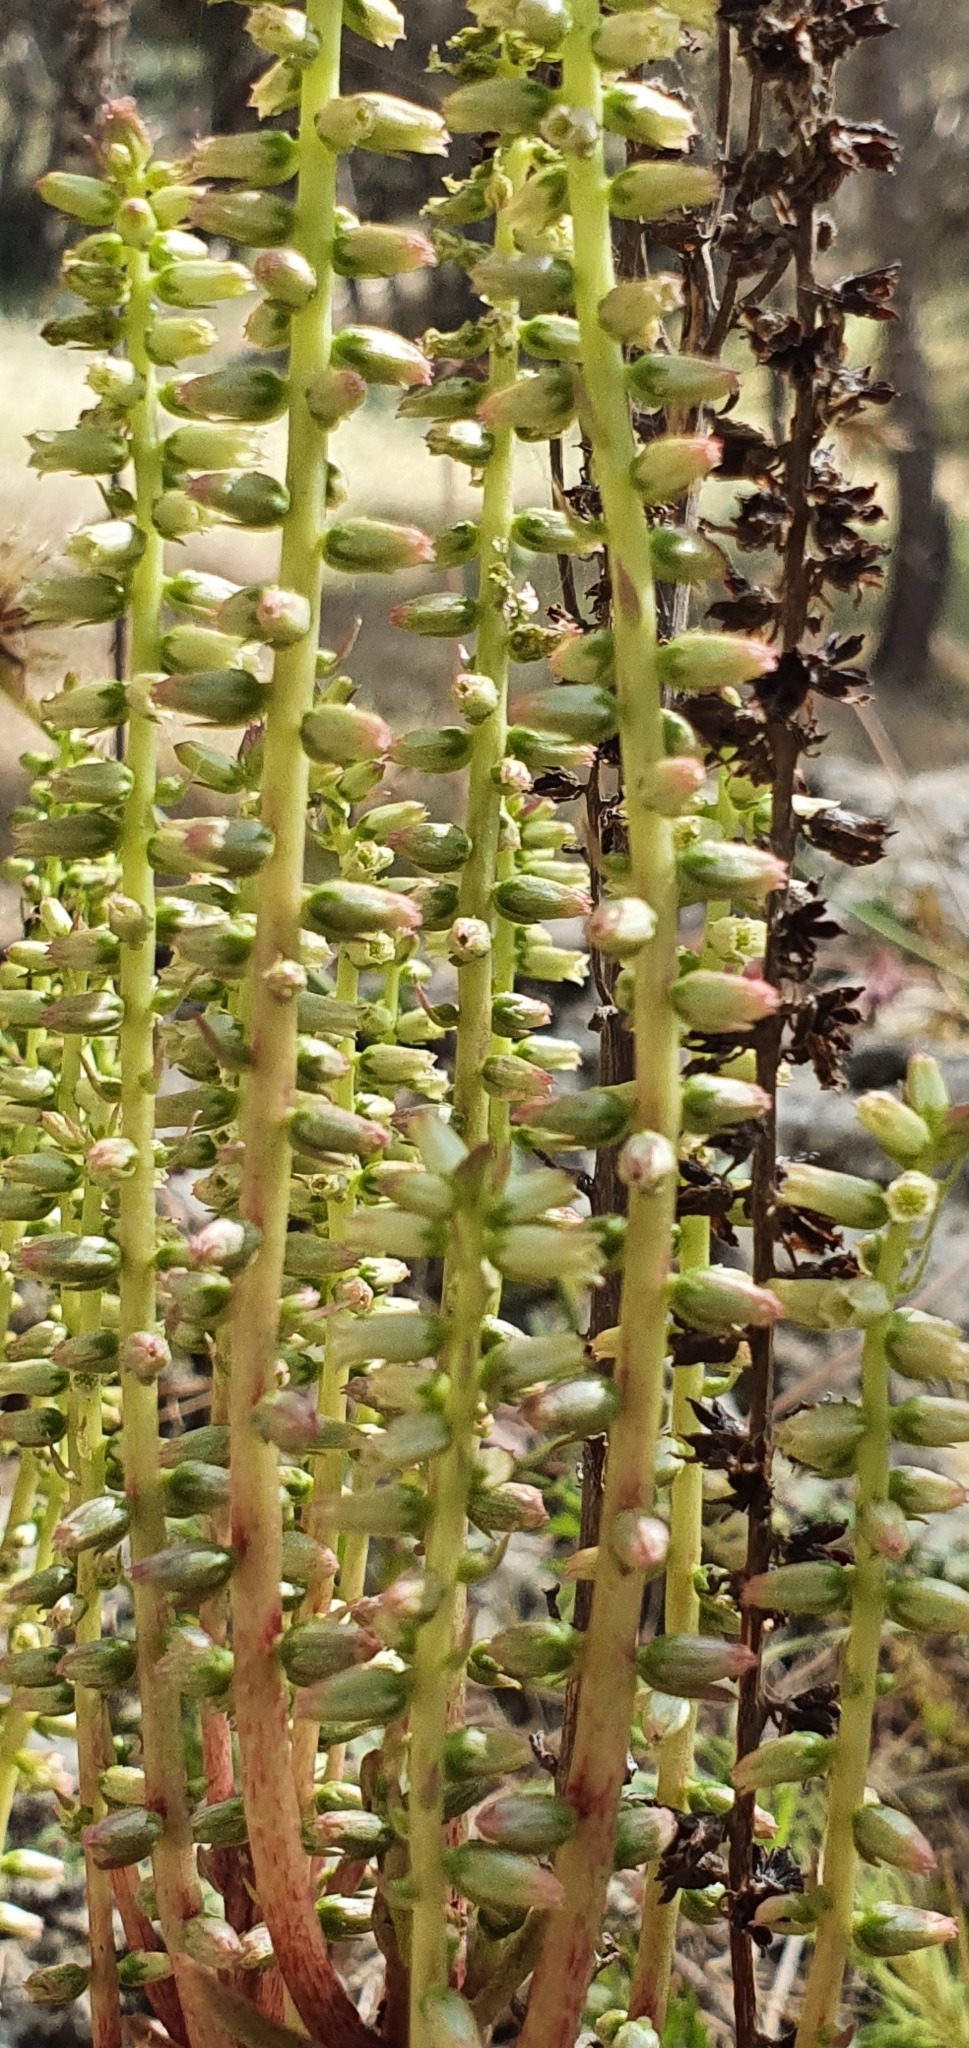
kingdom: Plantae
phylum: Tracheophyta
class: Magnoliopsida
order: Saxifragales
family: Crassulaceae
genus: Umbilicus
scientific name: Umbilicus horizontalis
